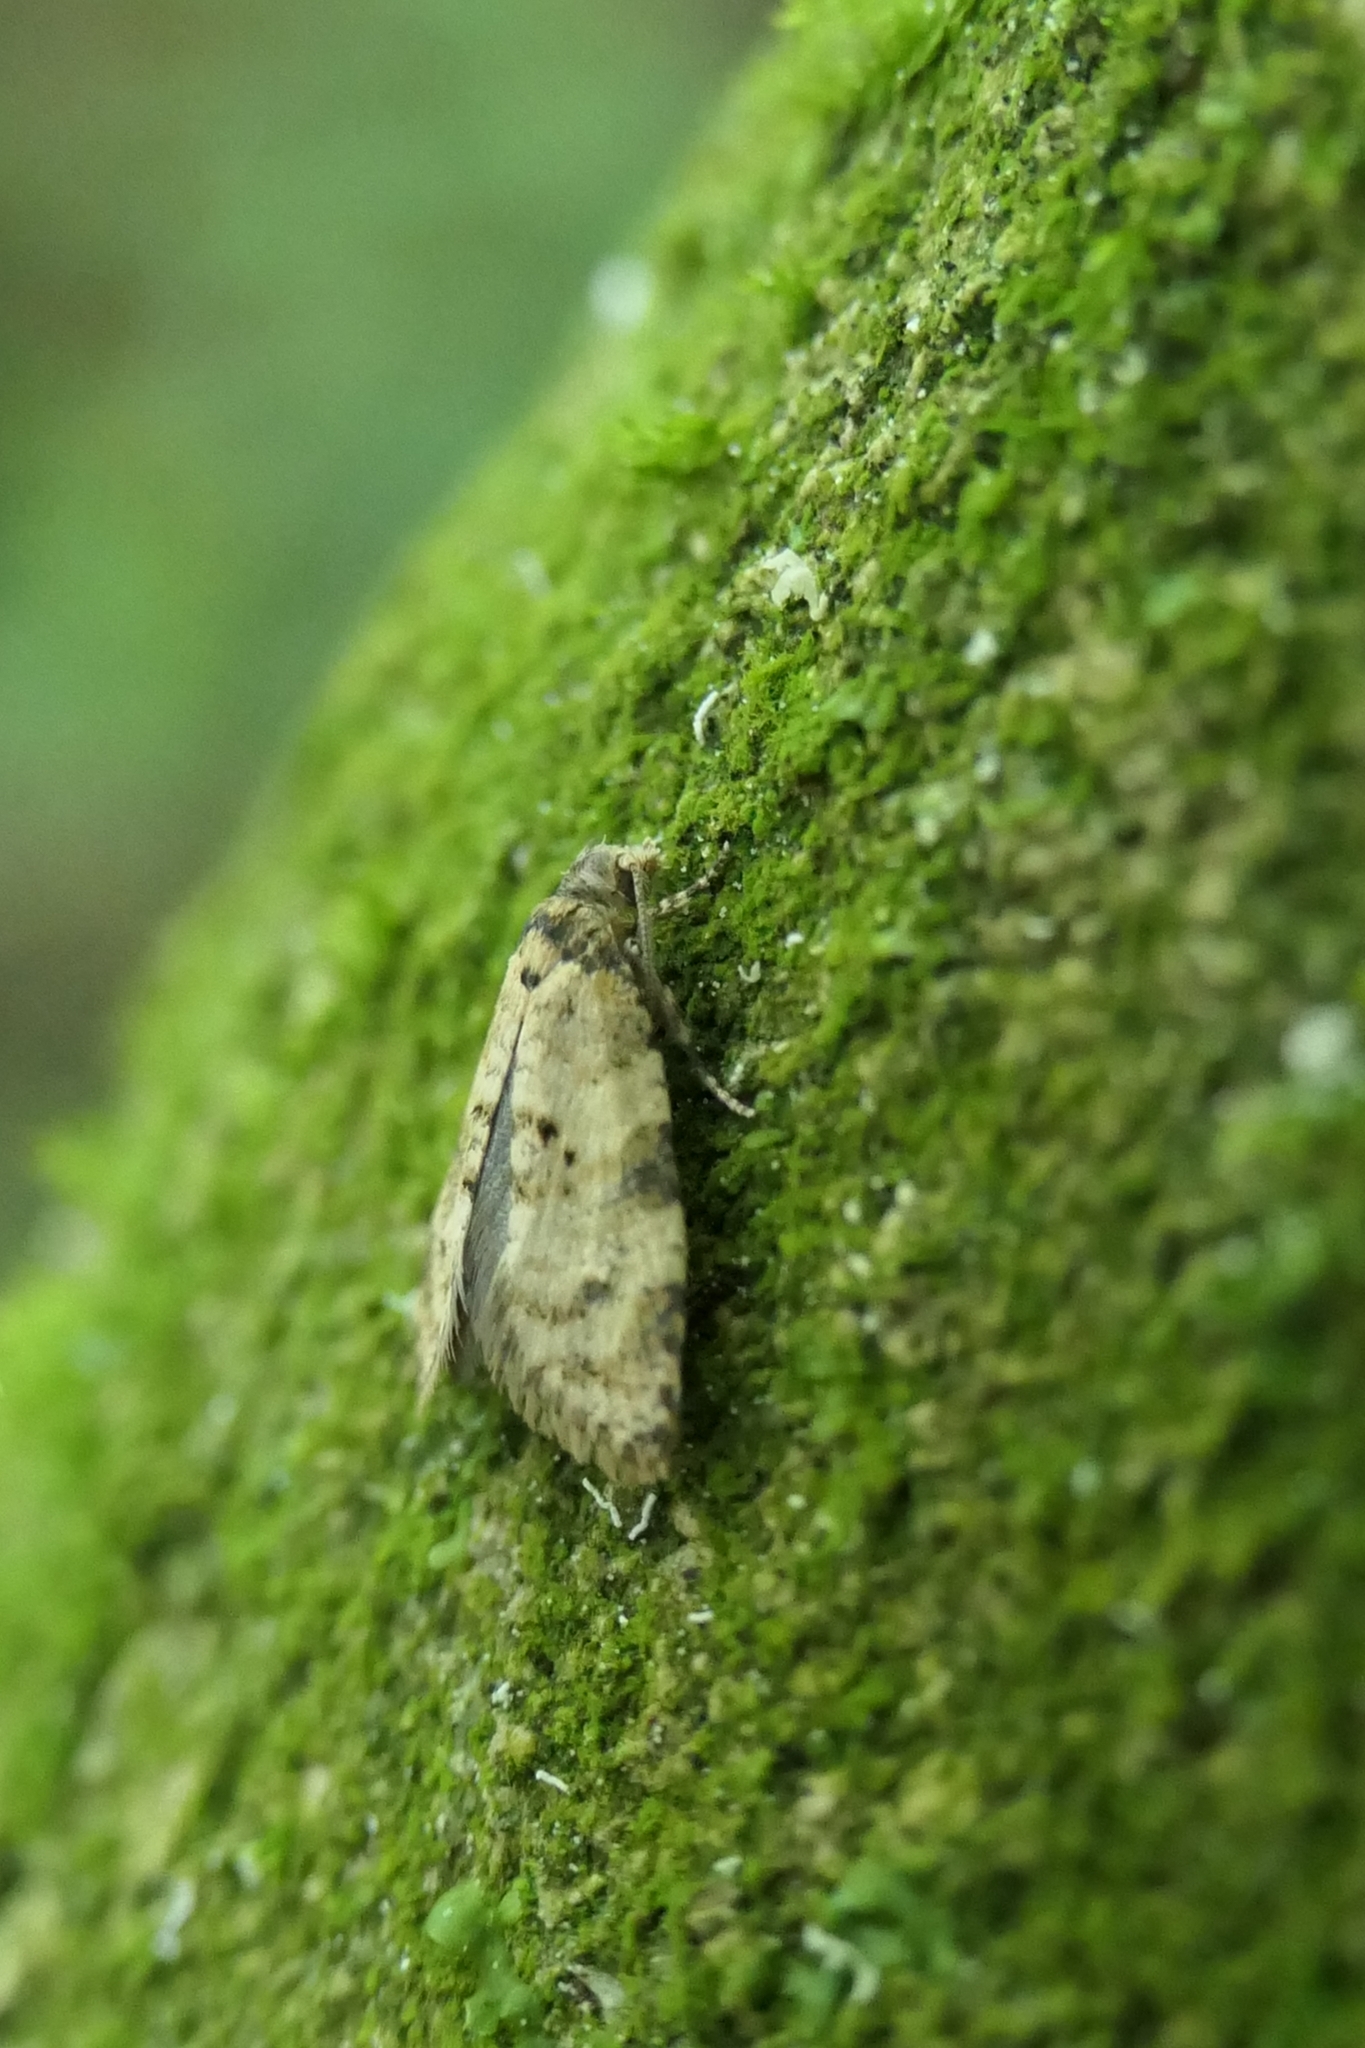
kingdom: Animalia
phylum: Arthropoda
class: Insecta
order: Lepidoptera
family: Tortricidae
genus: Dipterina
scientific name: Dipterina imbriferana
